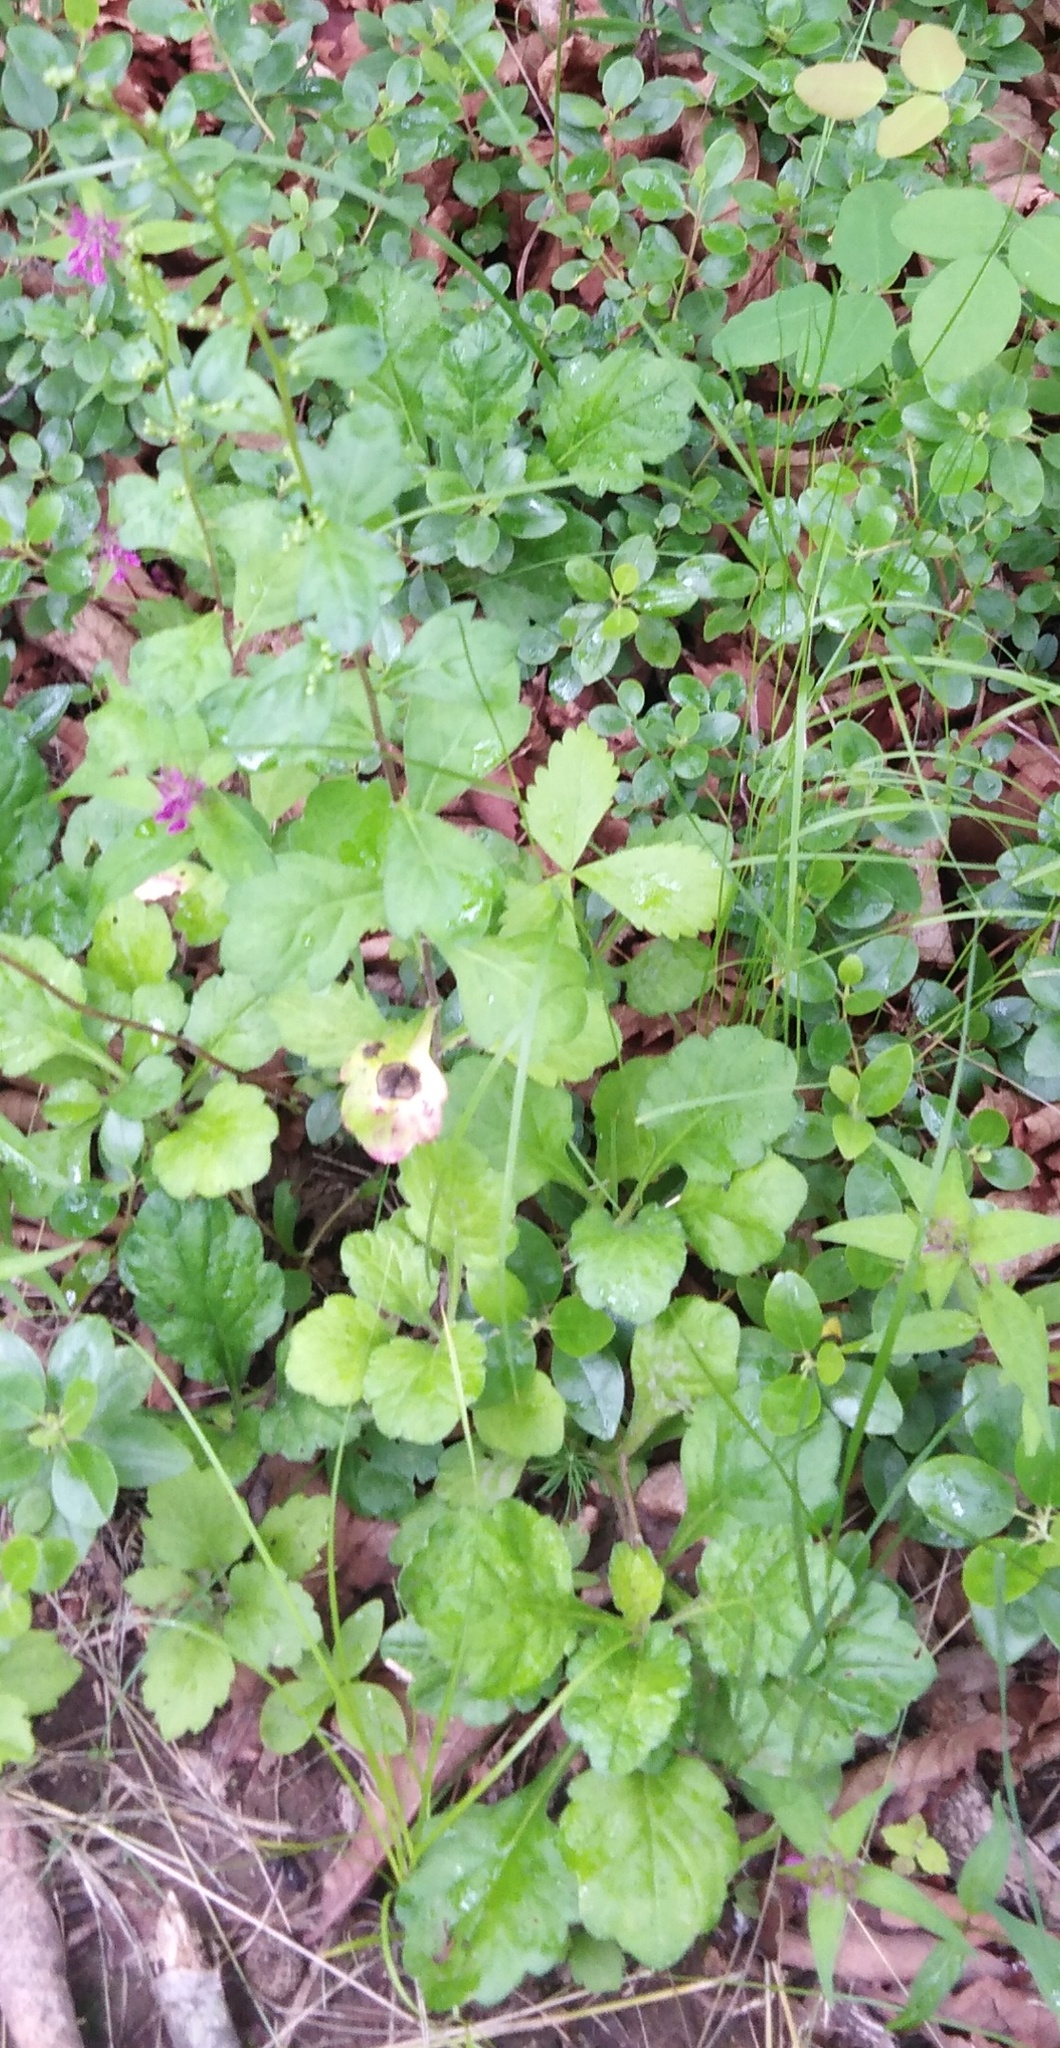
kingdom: Plantae
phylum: Tracheophyta
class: Magnoliopsida
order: Asterales
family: Asteraceae
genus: Artemisia
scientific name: Artemisia keiskeana
